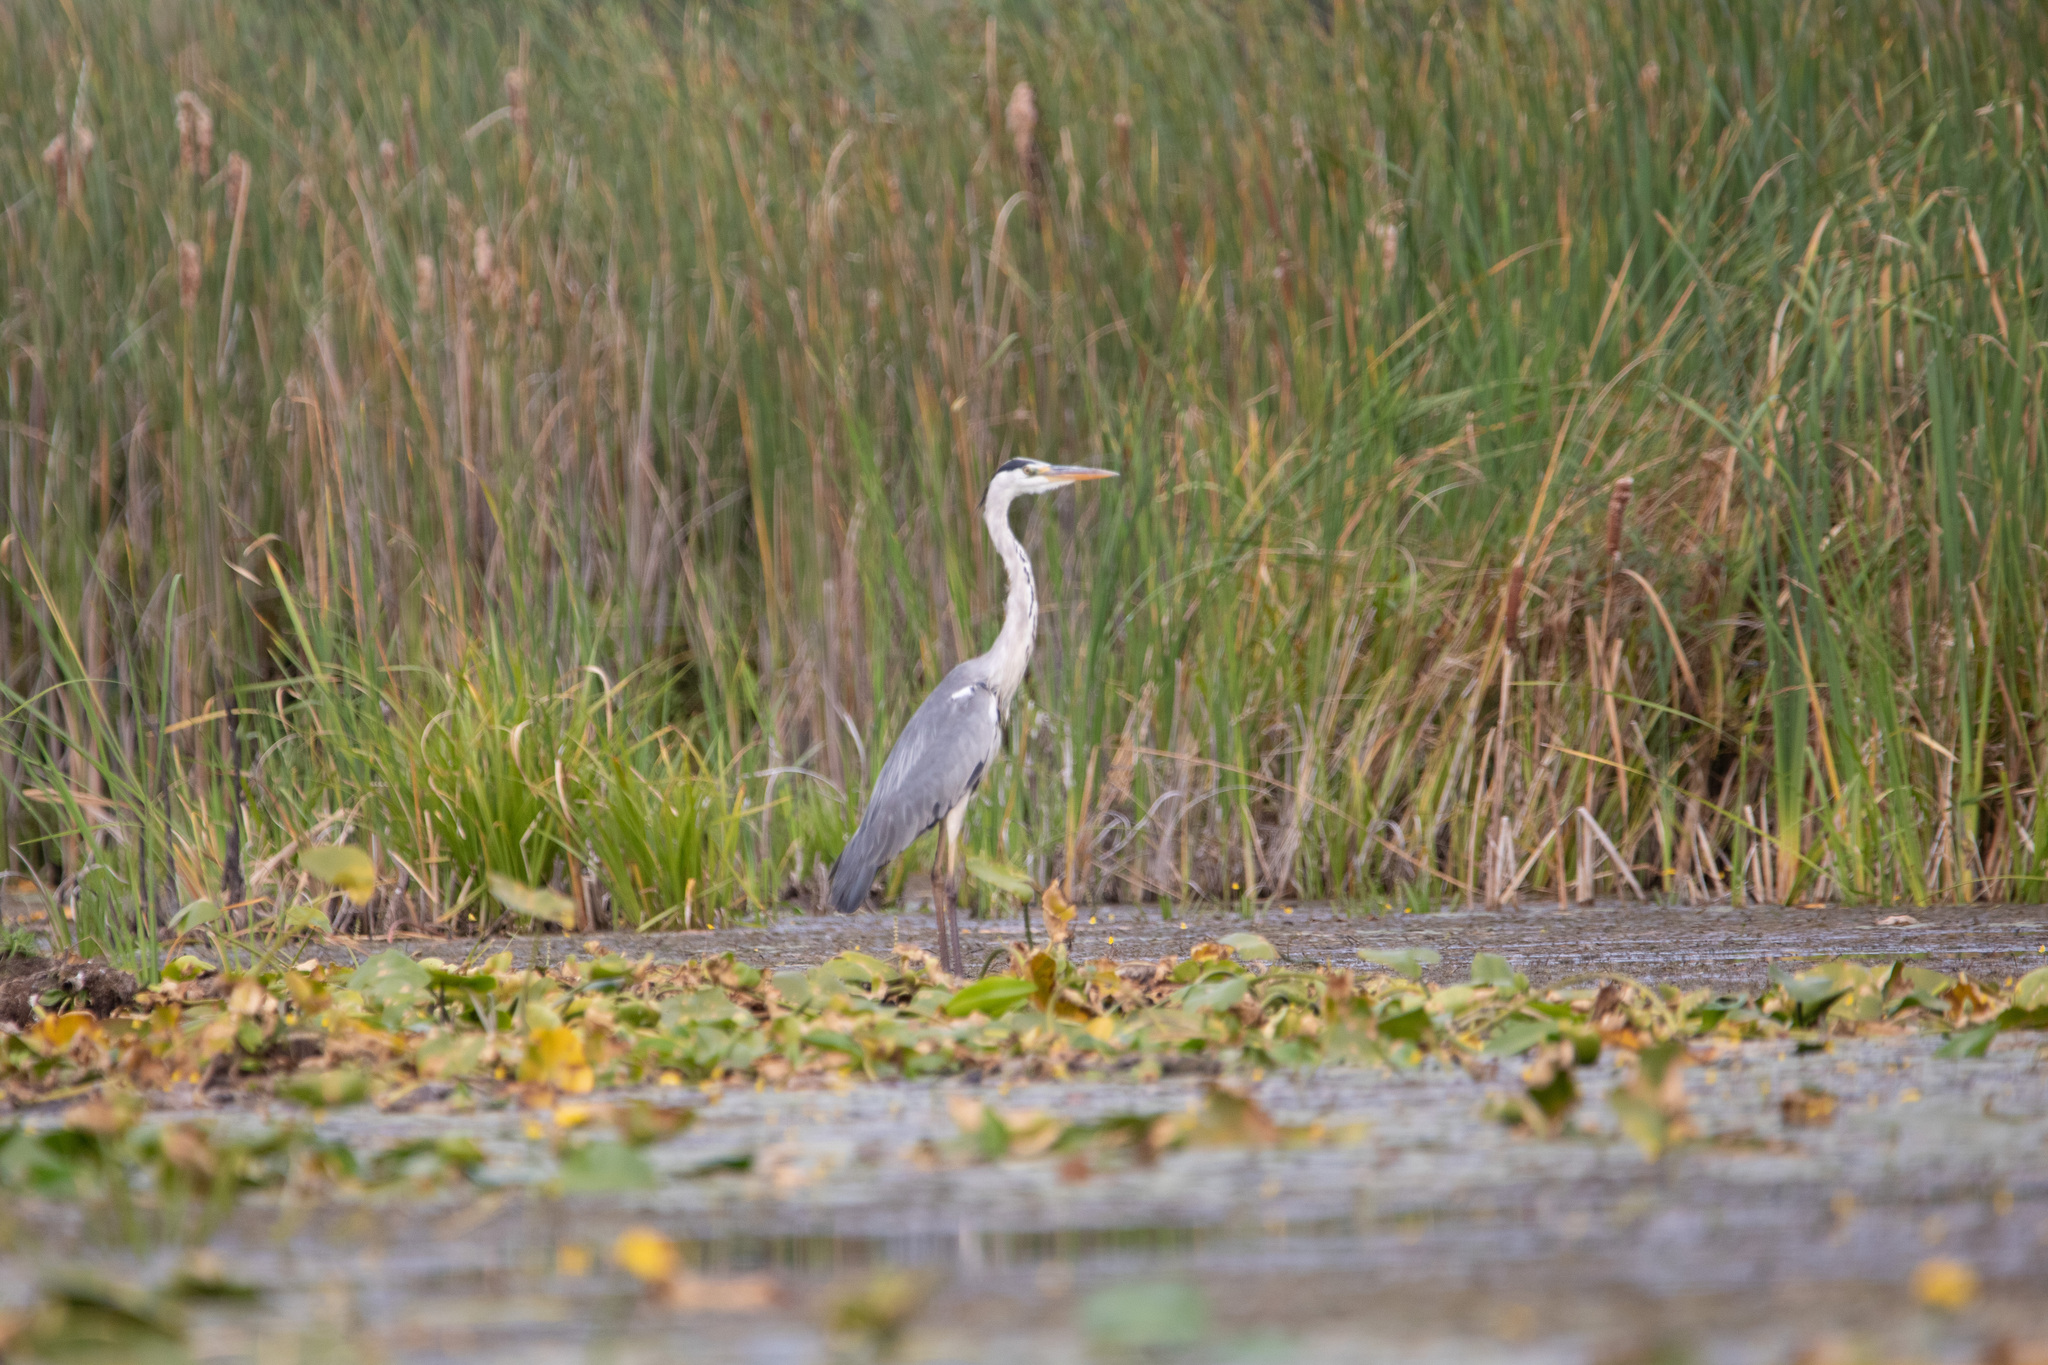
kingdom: Animalia
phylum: Chordata
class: Aves
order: Pelecaniformes
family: Ardeidae
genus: Ardea
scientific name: Ardea cinerea
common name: Grey heron
